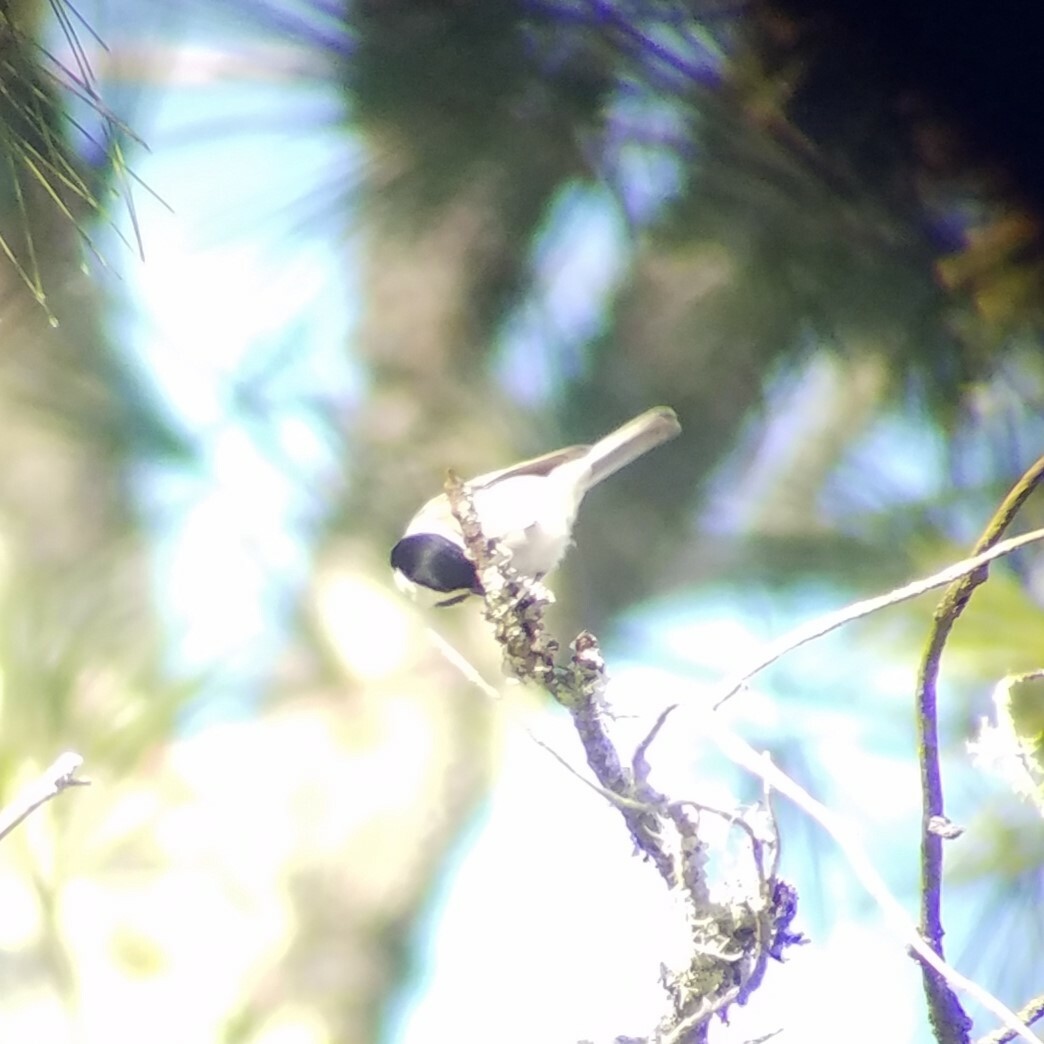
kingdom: Animalia
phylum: Chordata
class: Aves
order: Passeriformes
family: Paridae
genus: Poecile
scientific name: Poecile carolinensis
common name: Carolina chickadee
